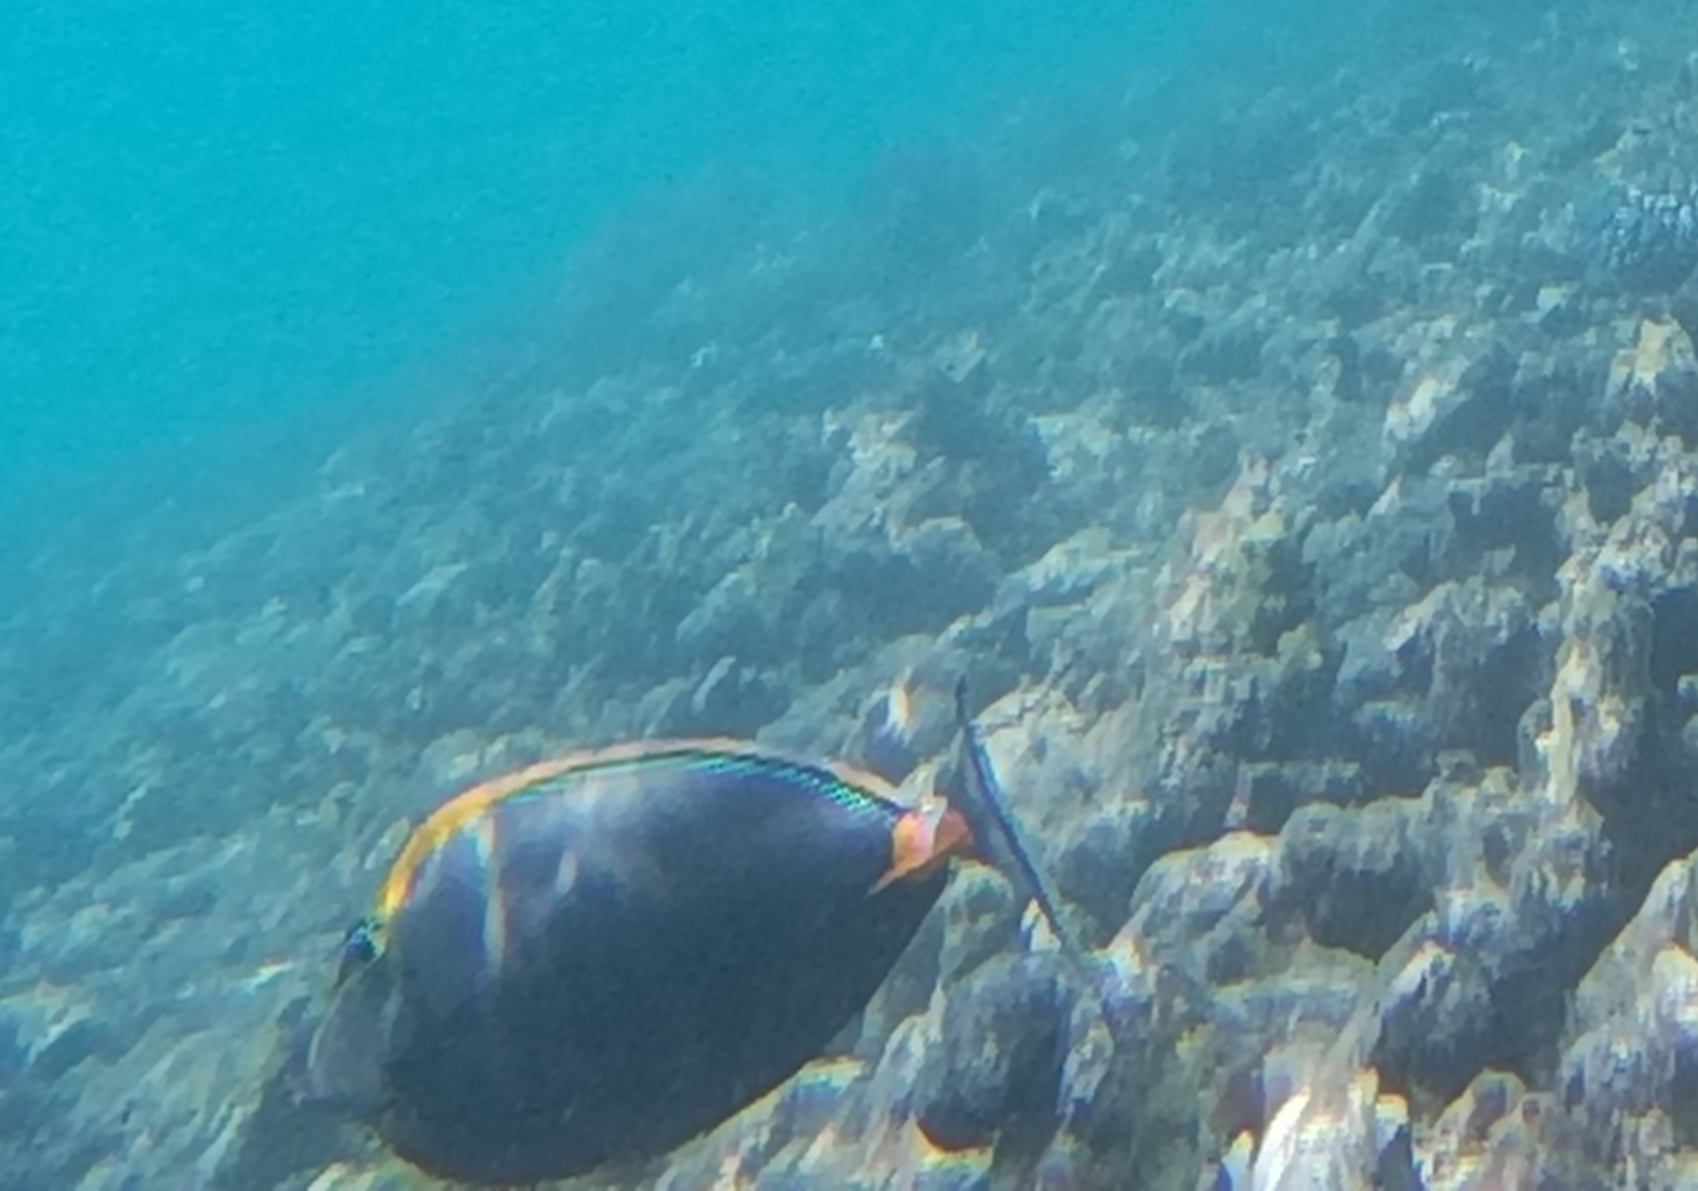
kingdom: Animalia
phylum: Chordata
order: Perciformes
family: Acanthuridae
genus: Naso
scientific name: Naso elegans
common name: Orangespine unicornfish
